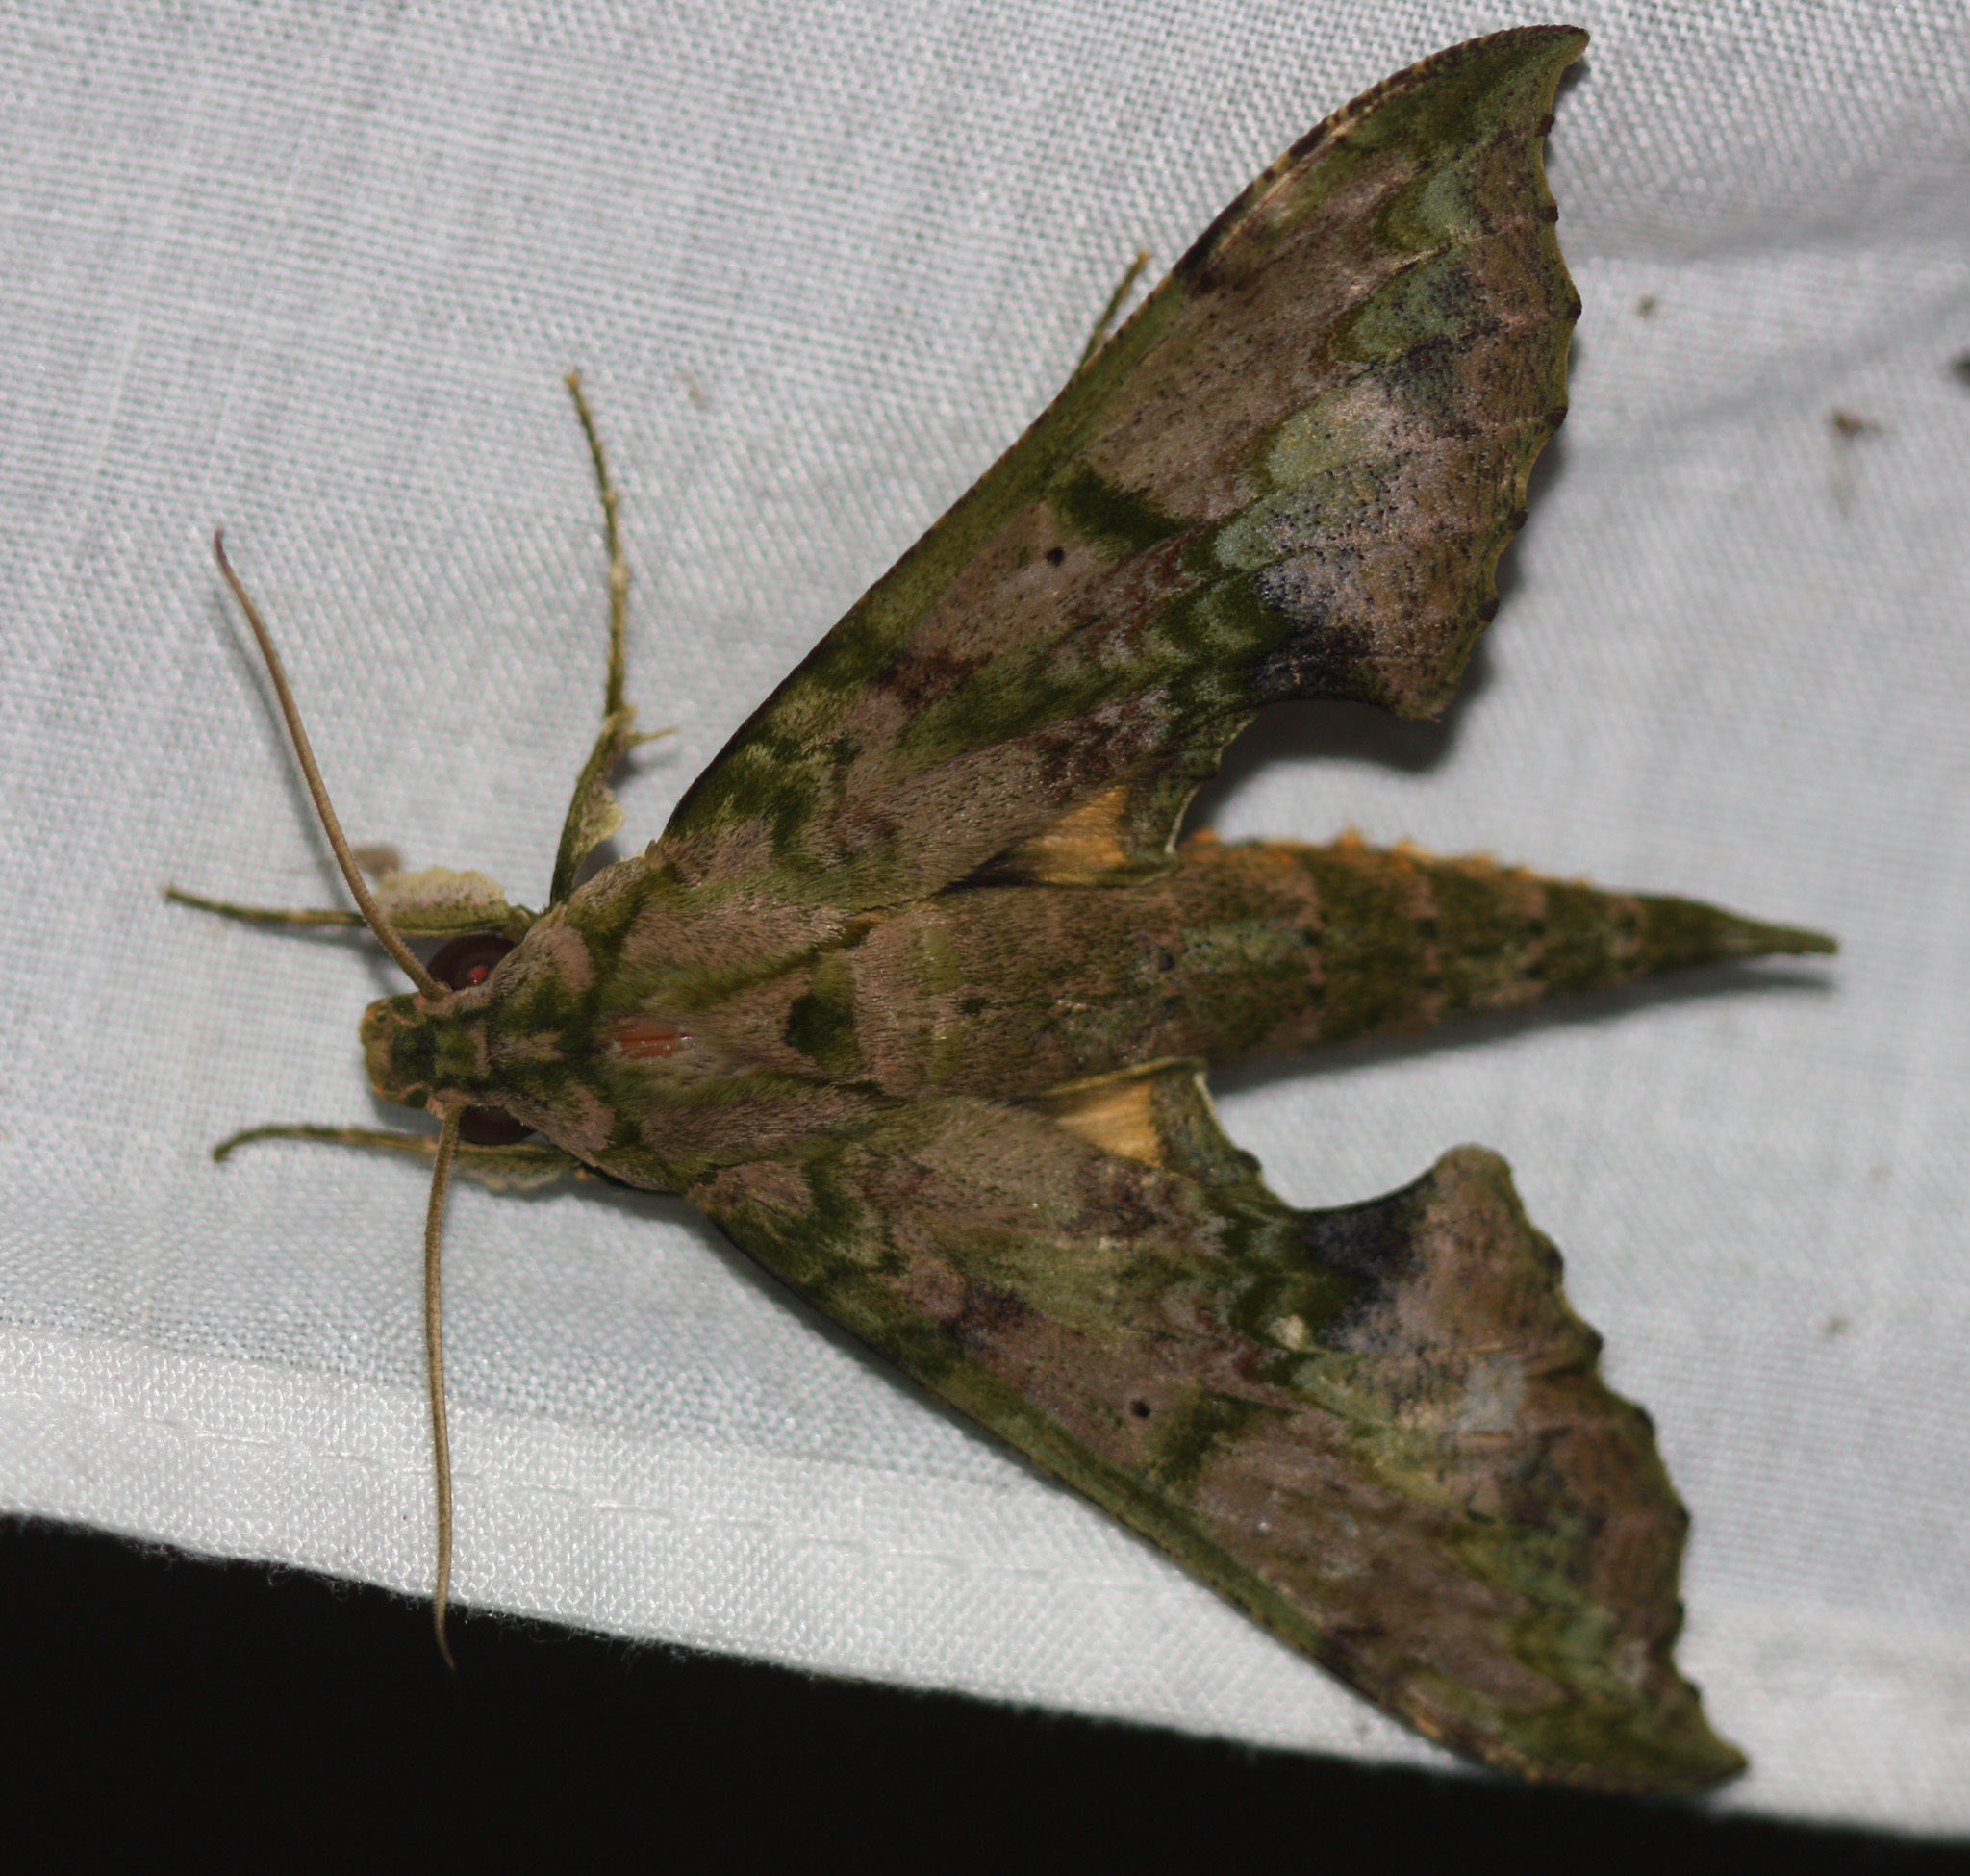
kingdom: Animalia
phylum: Arthropoda
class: Insecta
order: Lepidoptera
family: Sphingidae
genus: Xylophanes
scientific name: Xylophanes zurcheri
